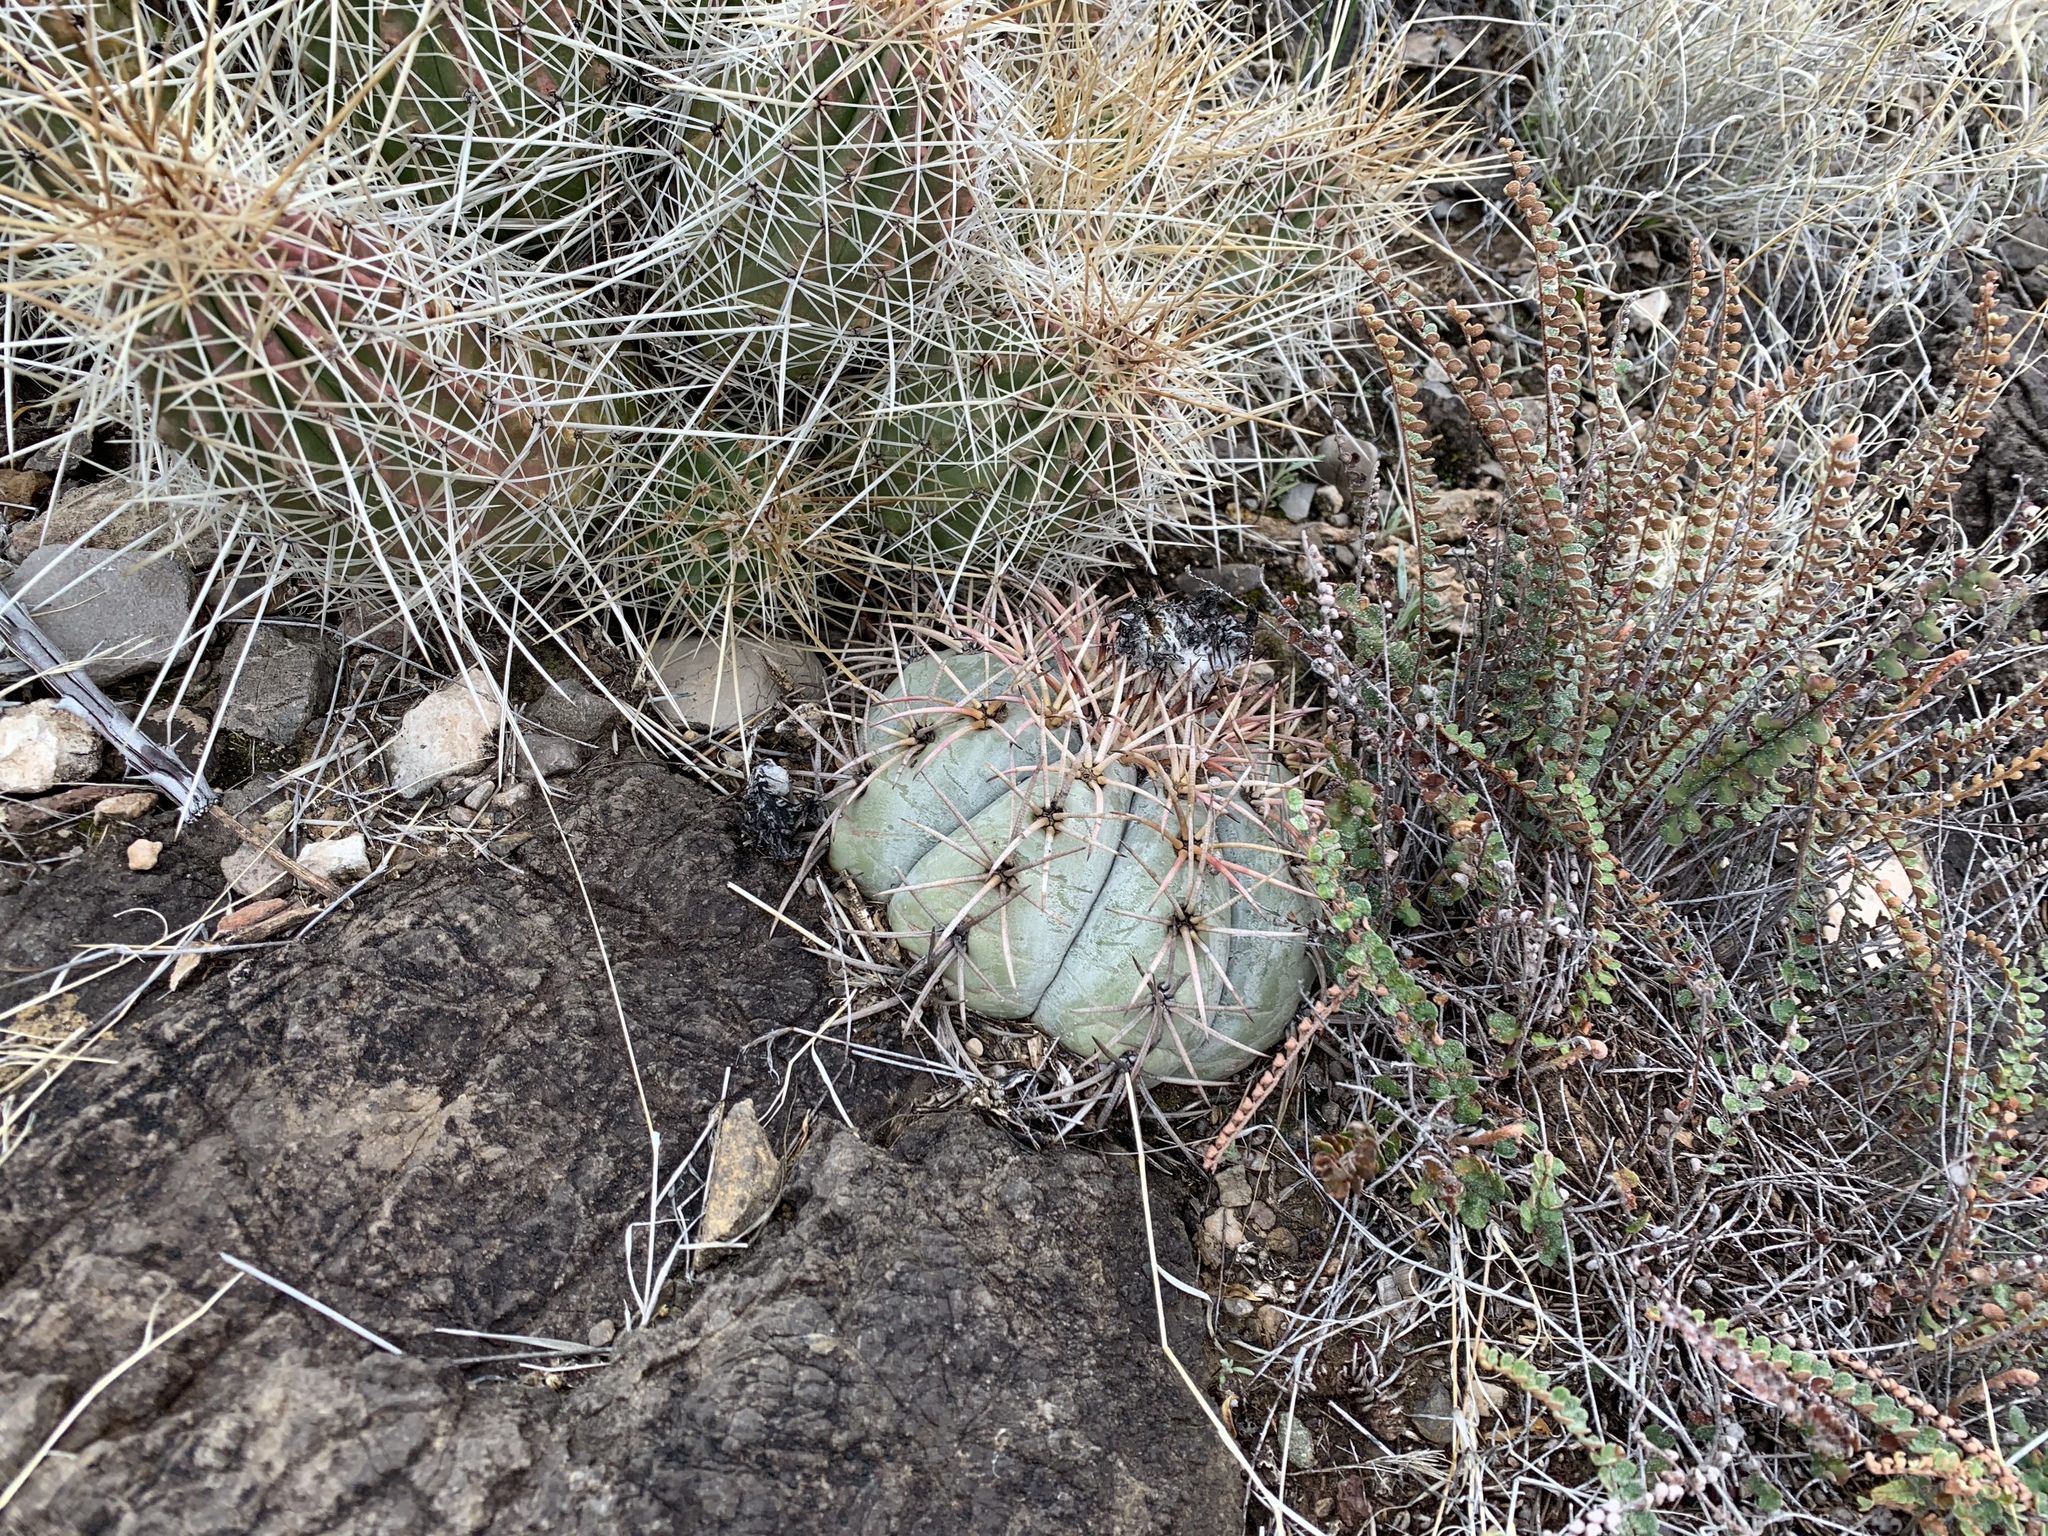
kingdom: Plantae
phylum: Tracheophyta
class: Magnoliopsida
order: Caryophyllales
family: Cactaceae
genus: Echinocactus
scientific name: Echinocactus horizonthalonius
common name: Devilshead
